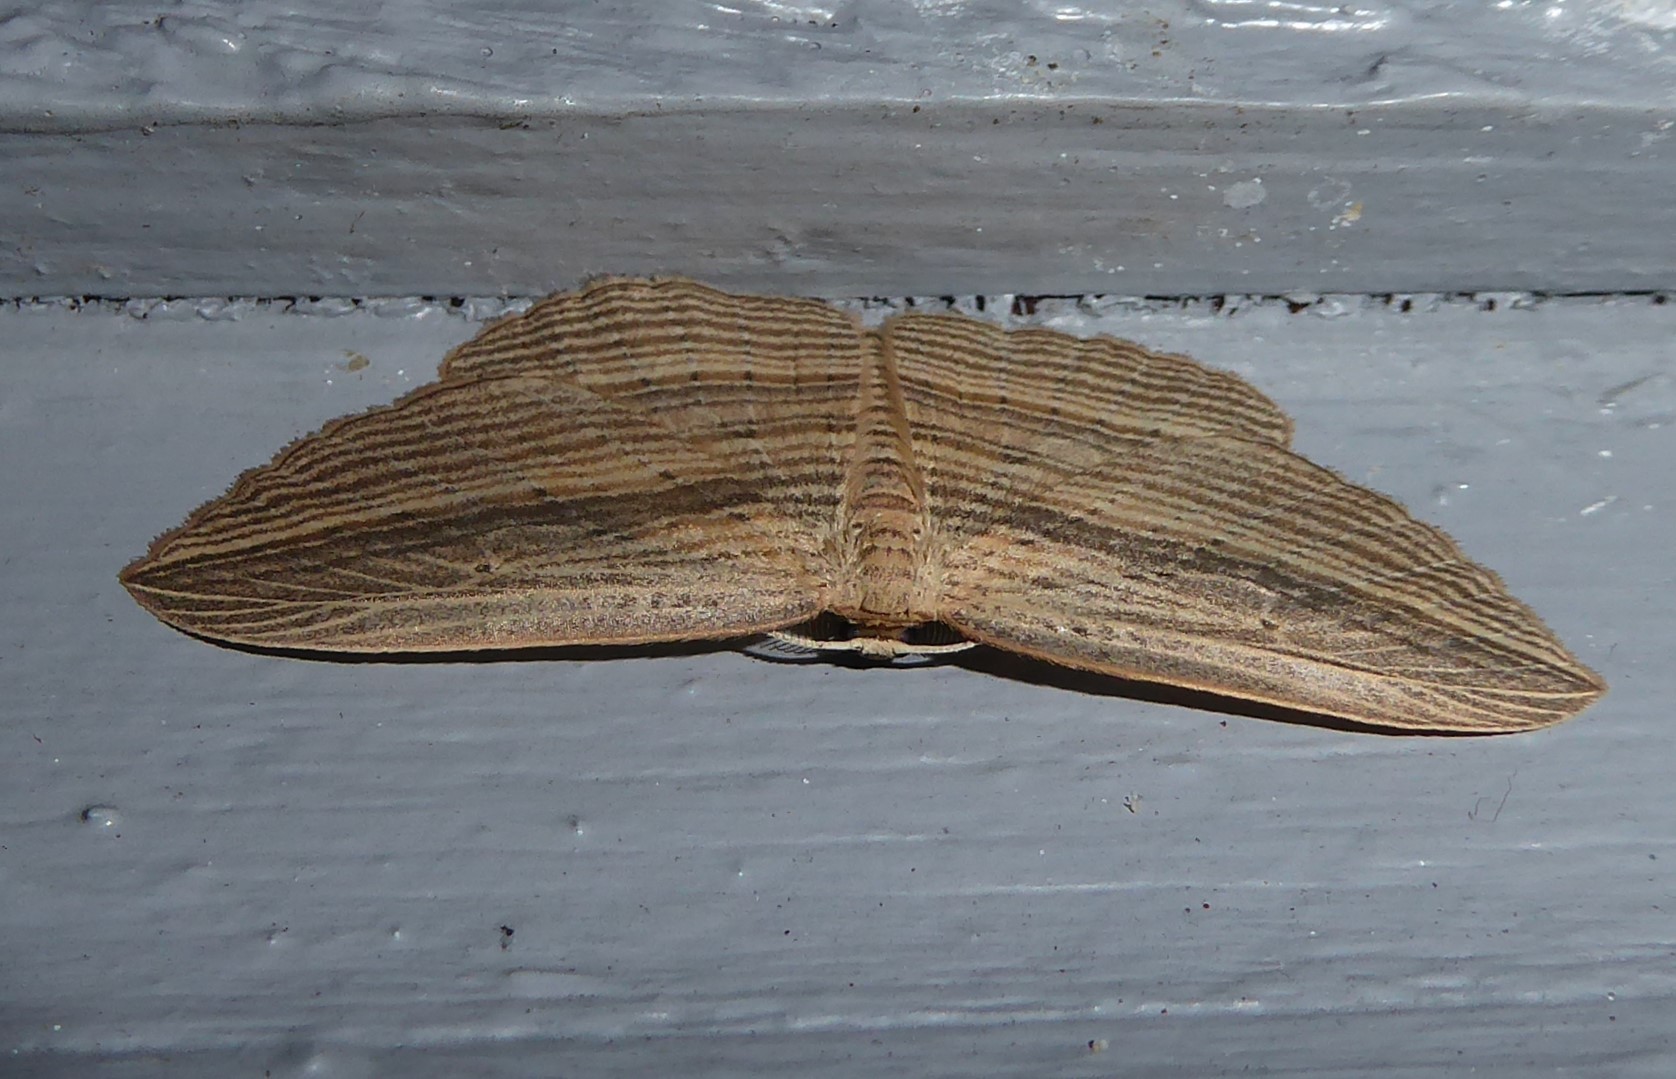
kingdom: Animalia
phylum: Arthropoda
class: Insecta
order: Lepidoptera
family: Geometridae
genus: Epiphryne
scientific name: Epiphryne verriculata
